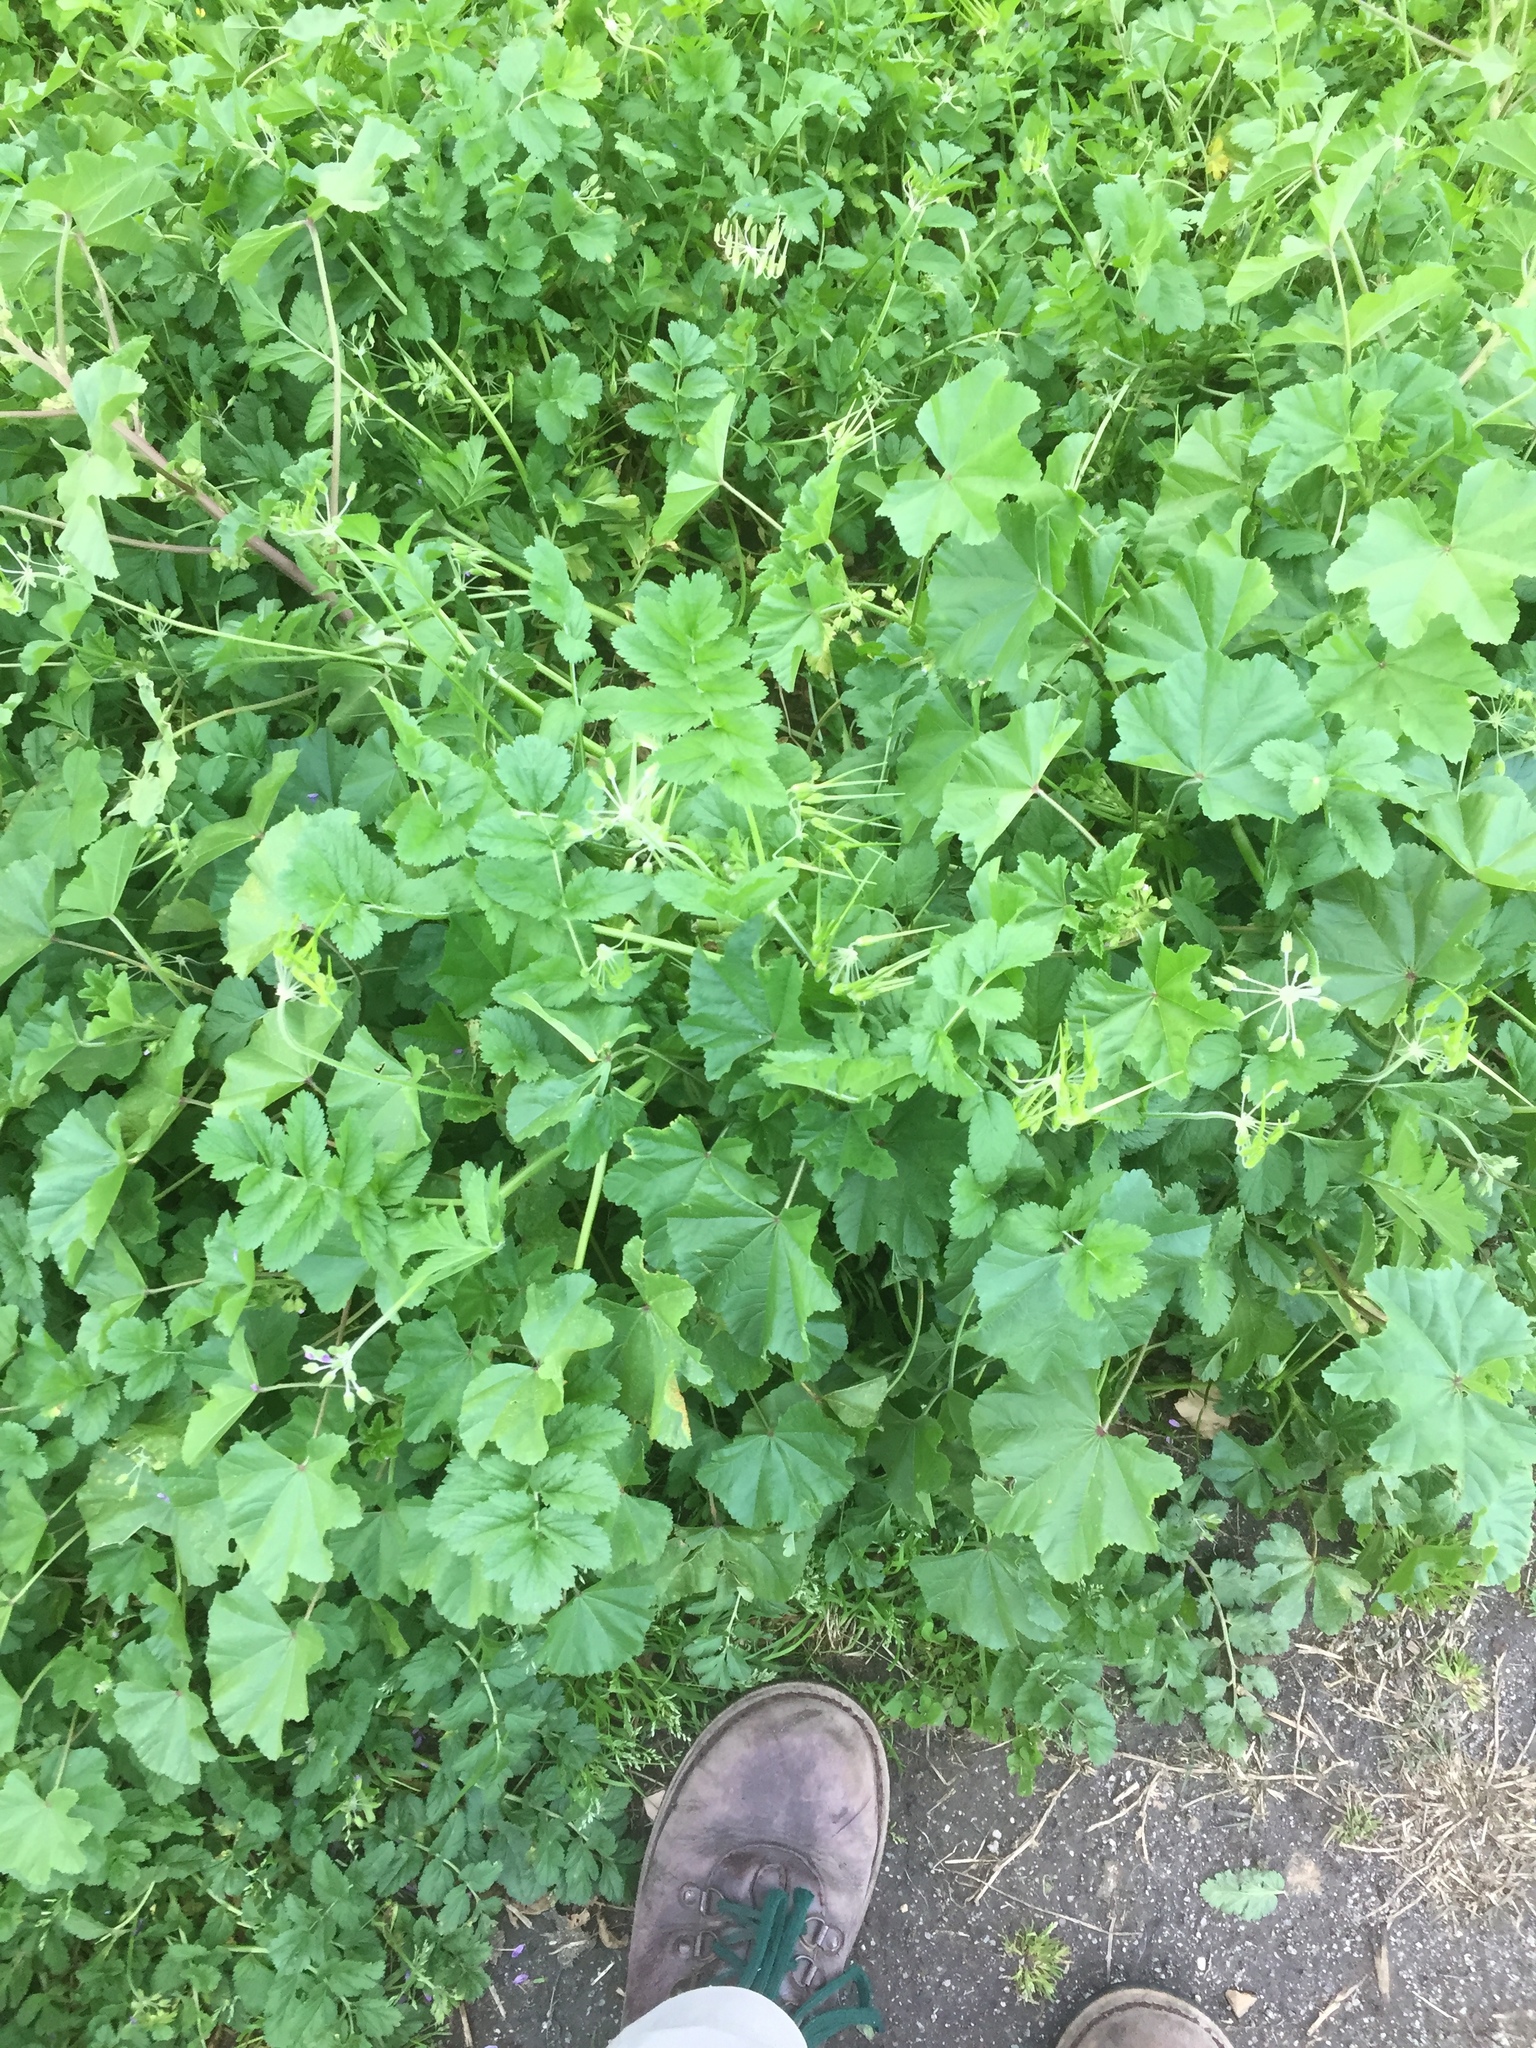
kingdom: Plantae
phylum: Tracheophyta
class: Magnoliopsida
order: Geraniales
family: Geraniaceae
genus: Erodium
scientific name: Erodium moschatum
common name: Musk stork's-bill
